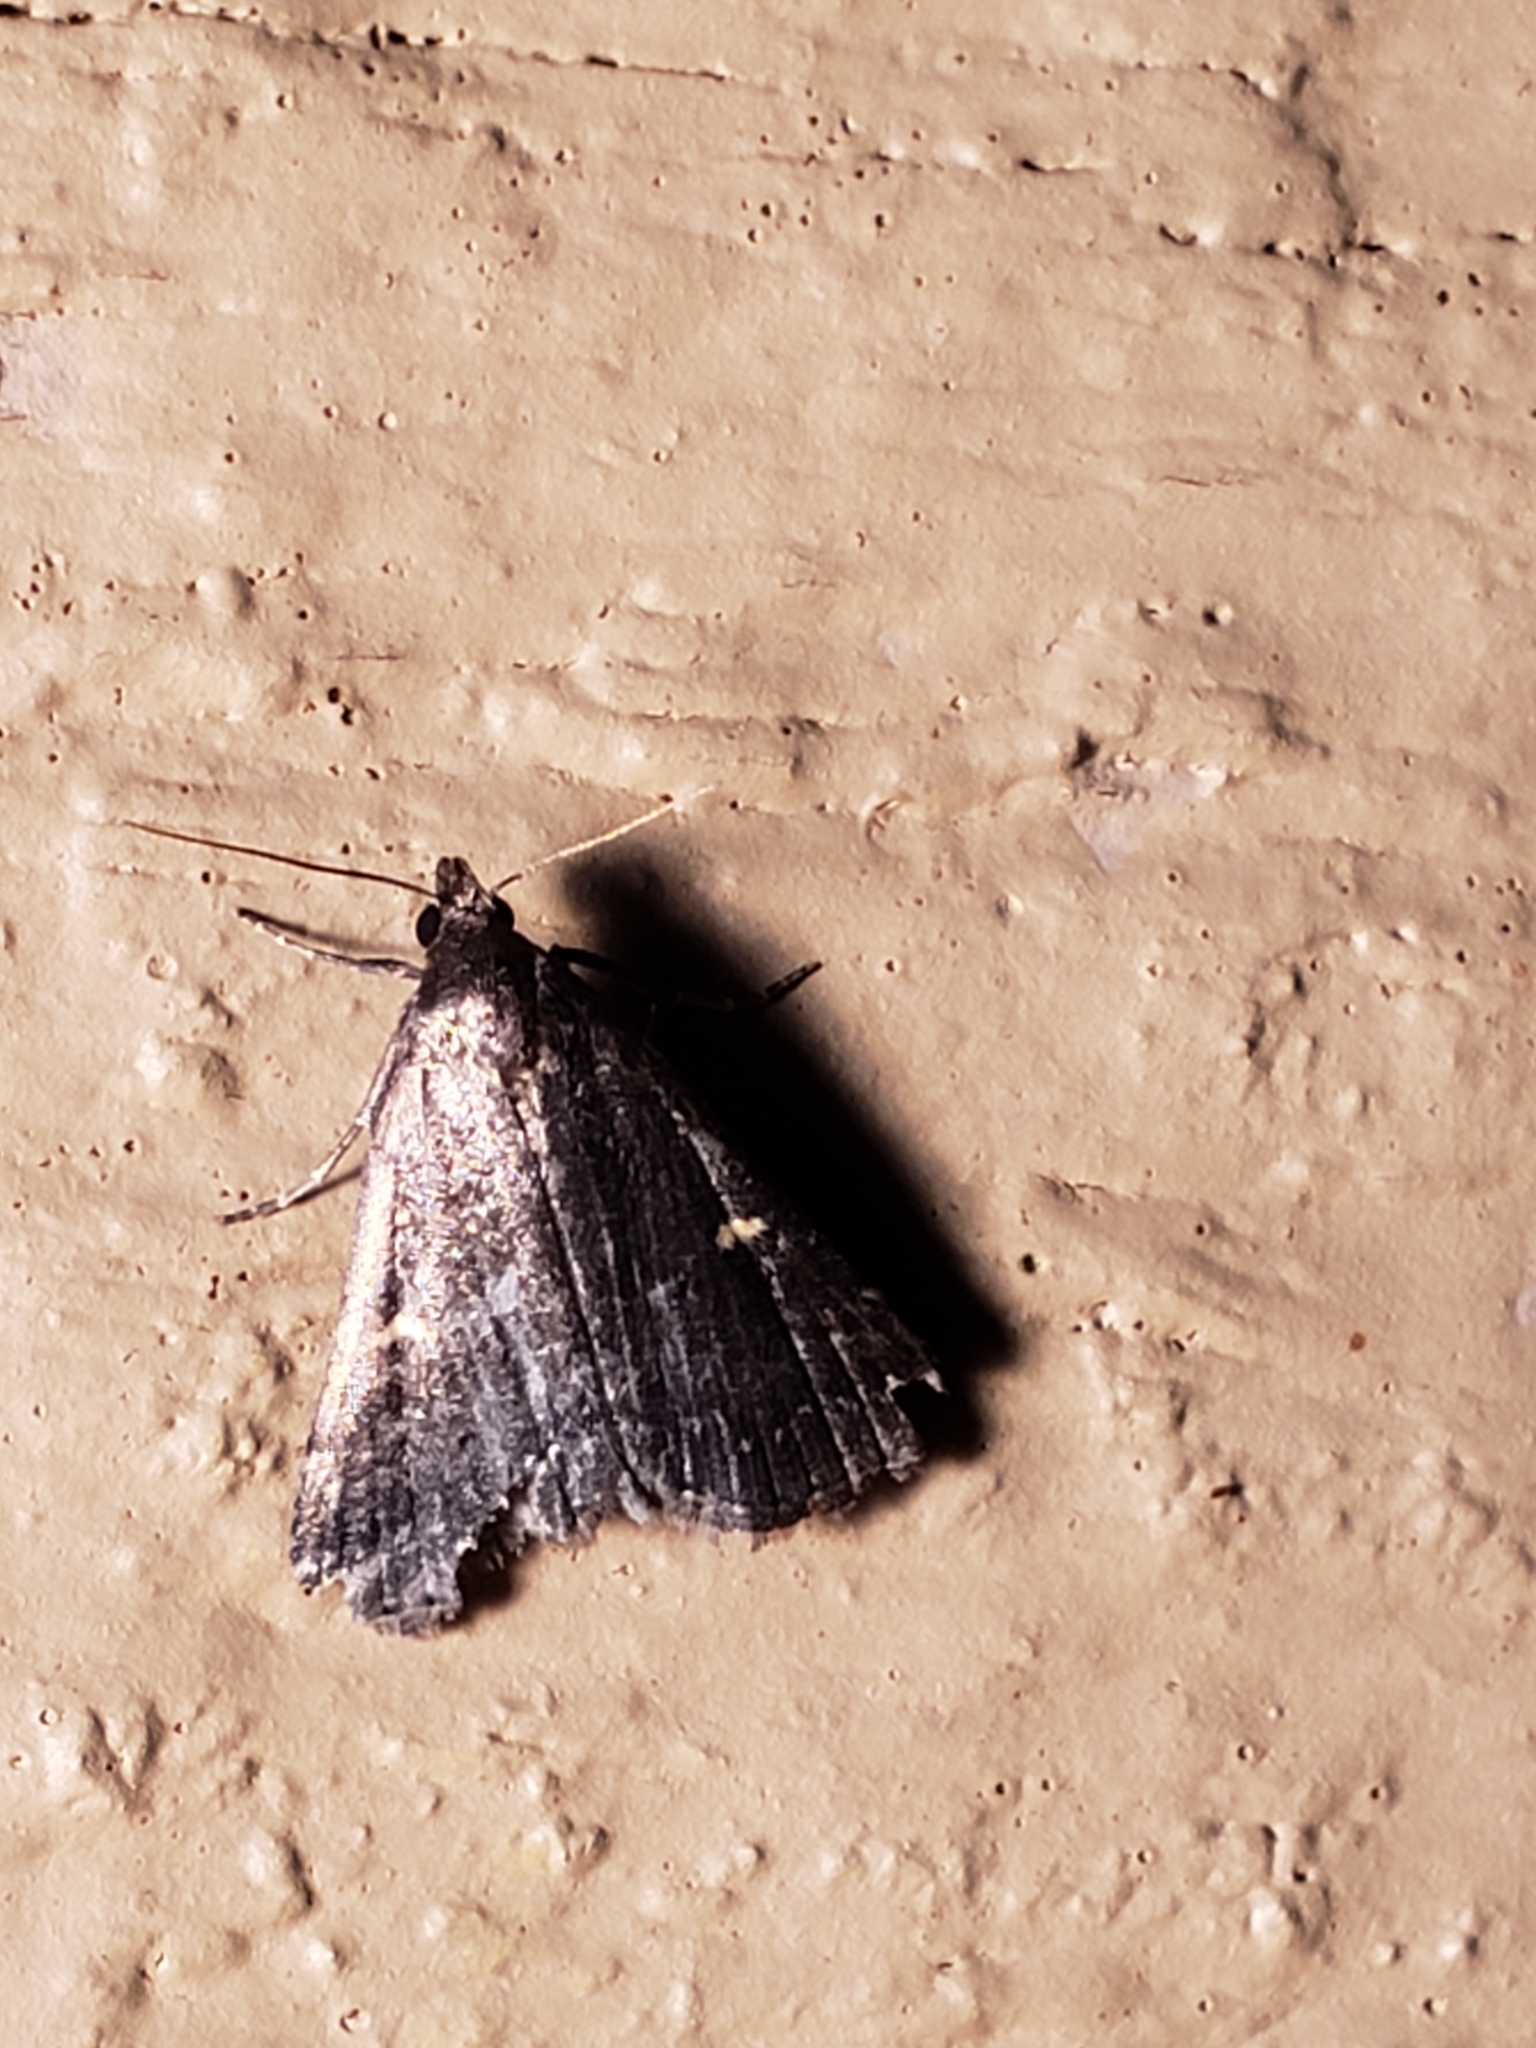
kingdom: Animalia
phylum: Arthropoda
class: Insecta
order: Lepidoptera
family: Erebidae
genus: Tetanolita
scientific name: Tetanolita mynesalis
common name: Smoky tetanolita moth
